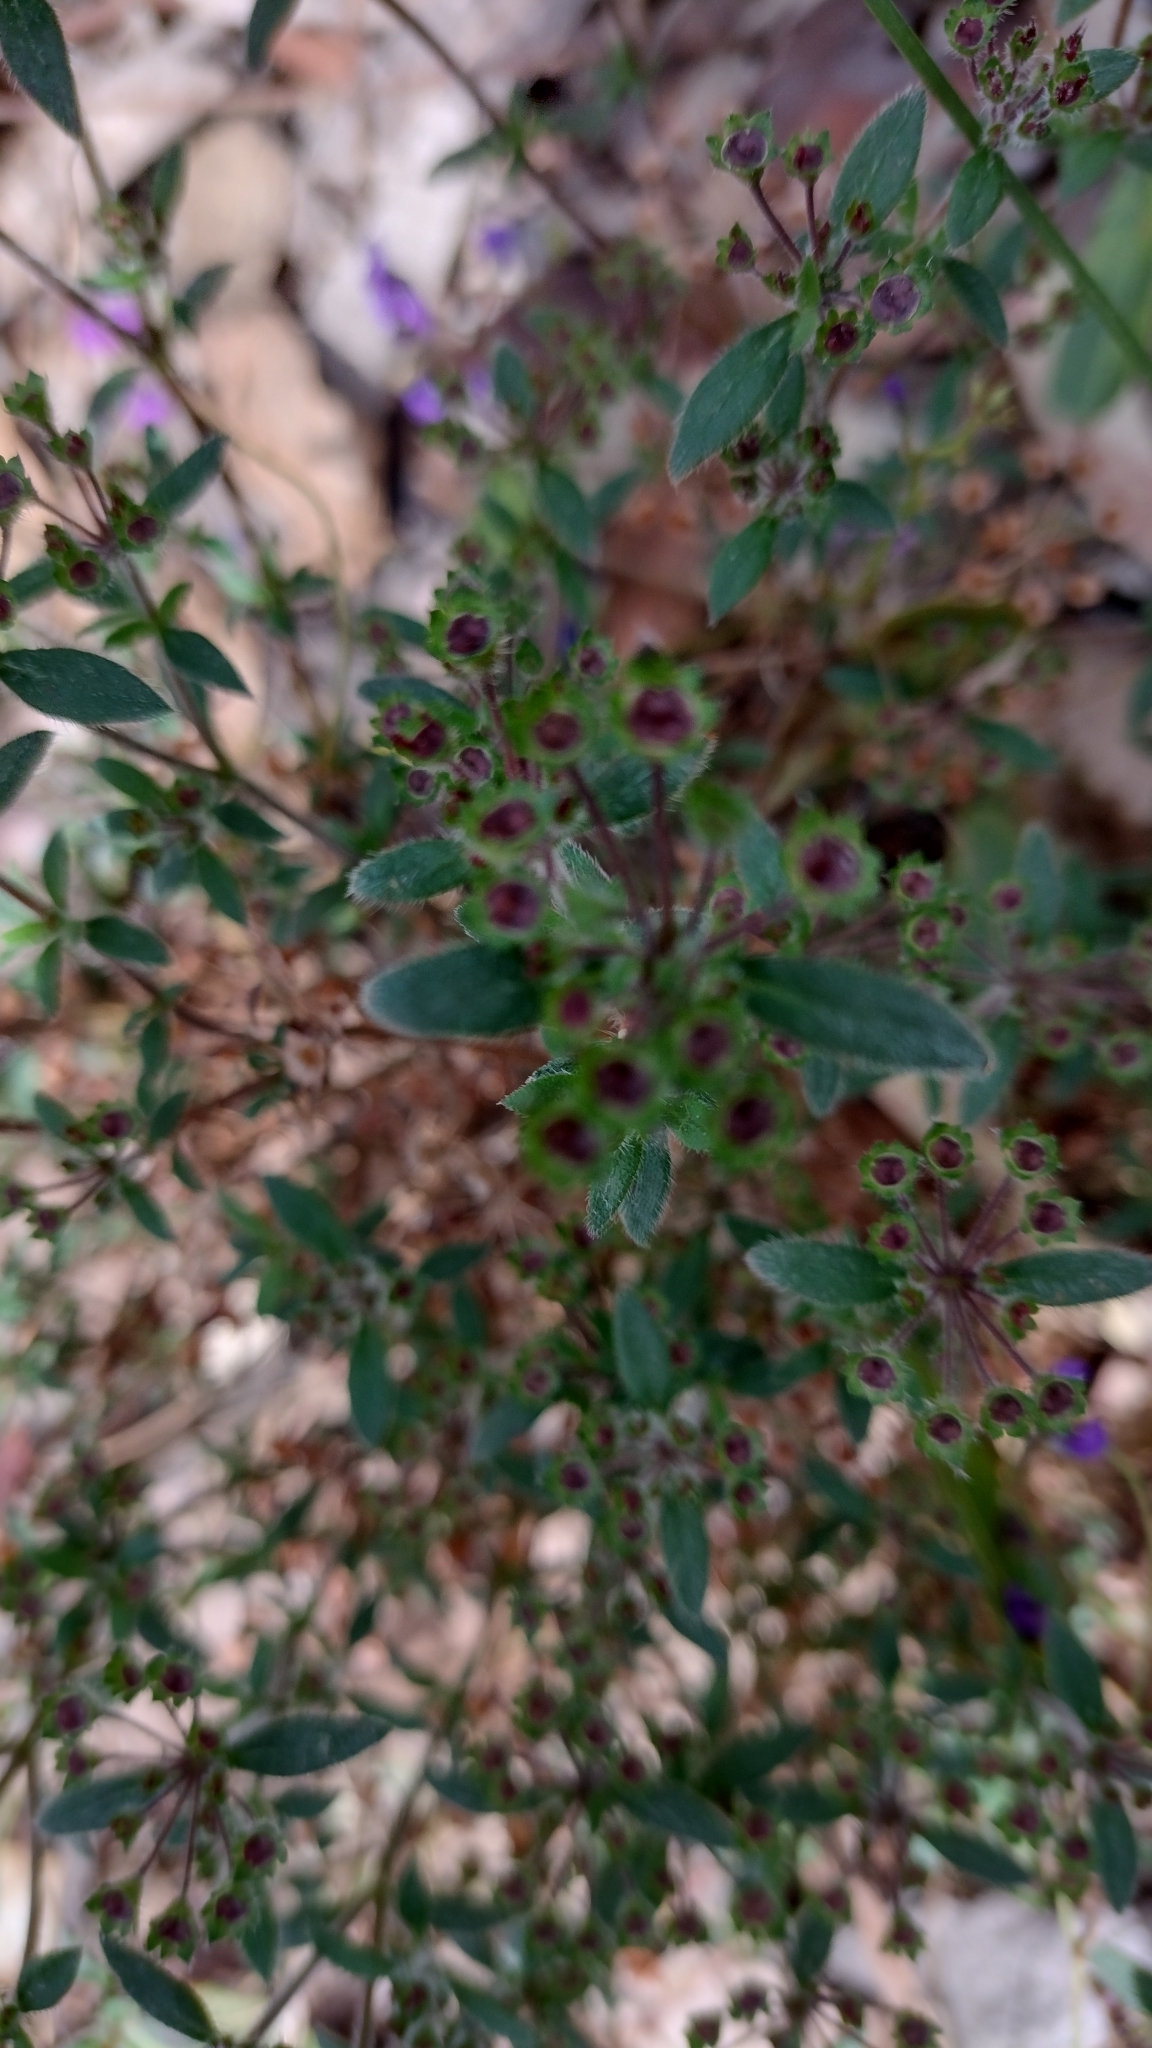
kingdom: Plantae
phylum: Tracheophyta
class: Magnoliopsida
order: Gentianales
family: Rubiaceae
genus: Pomax
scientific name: Pomax umbellata
